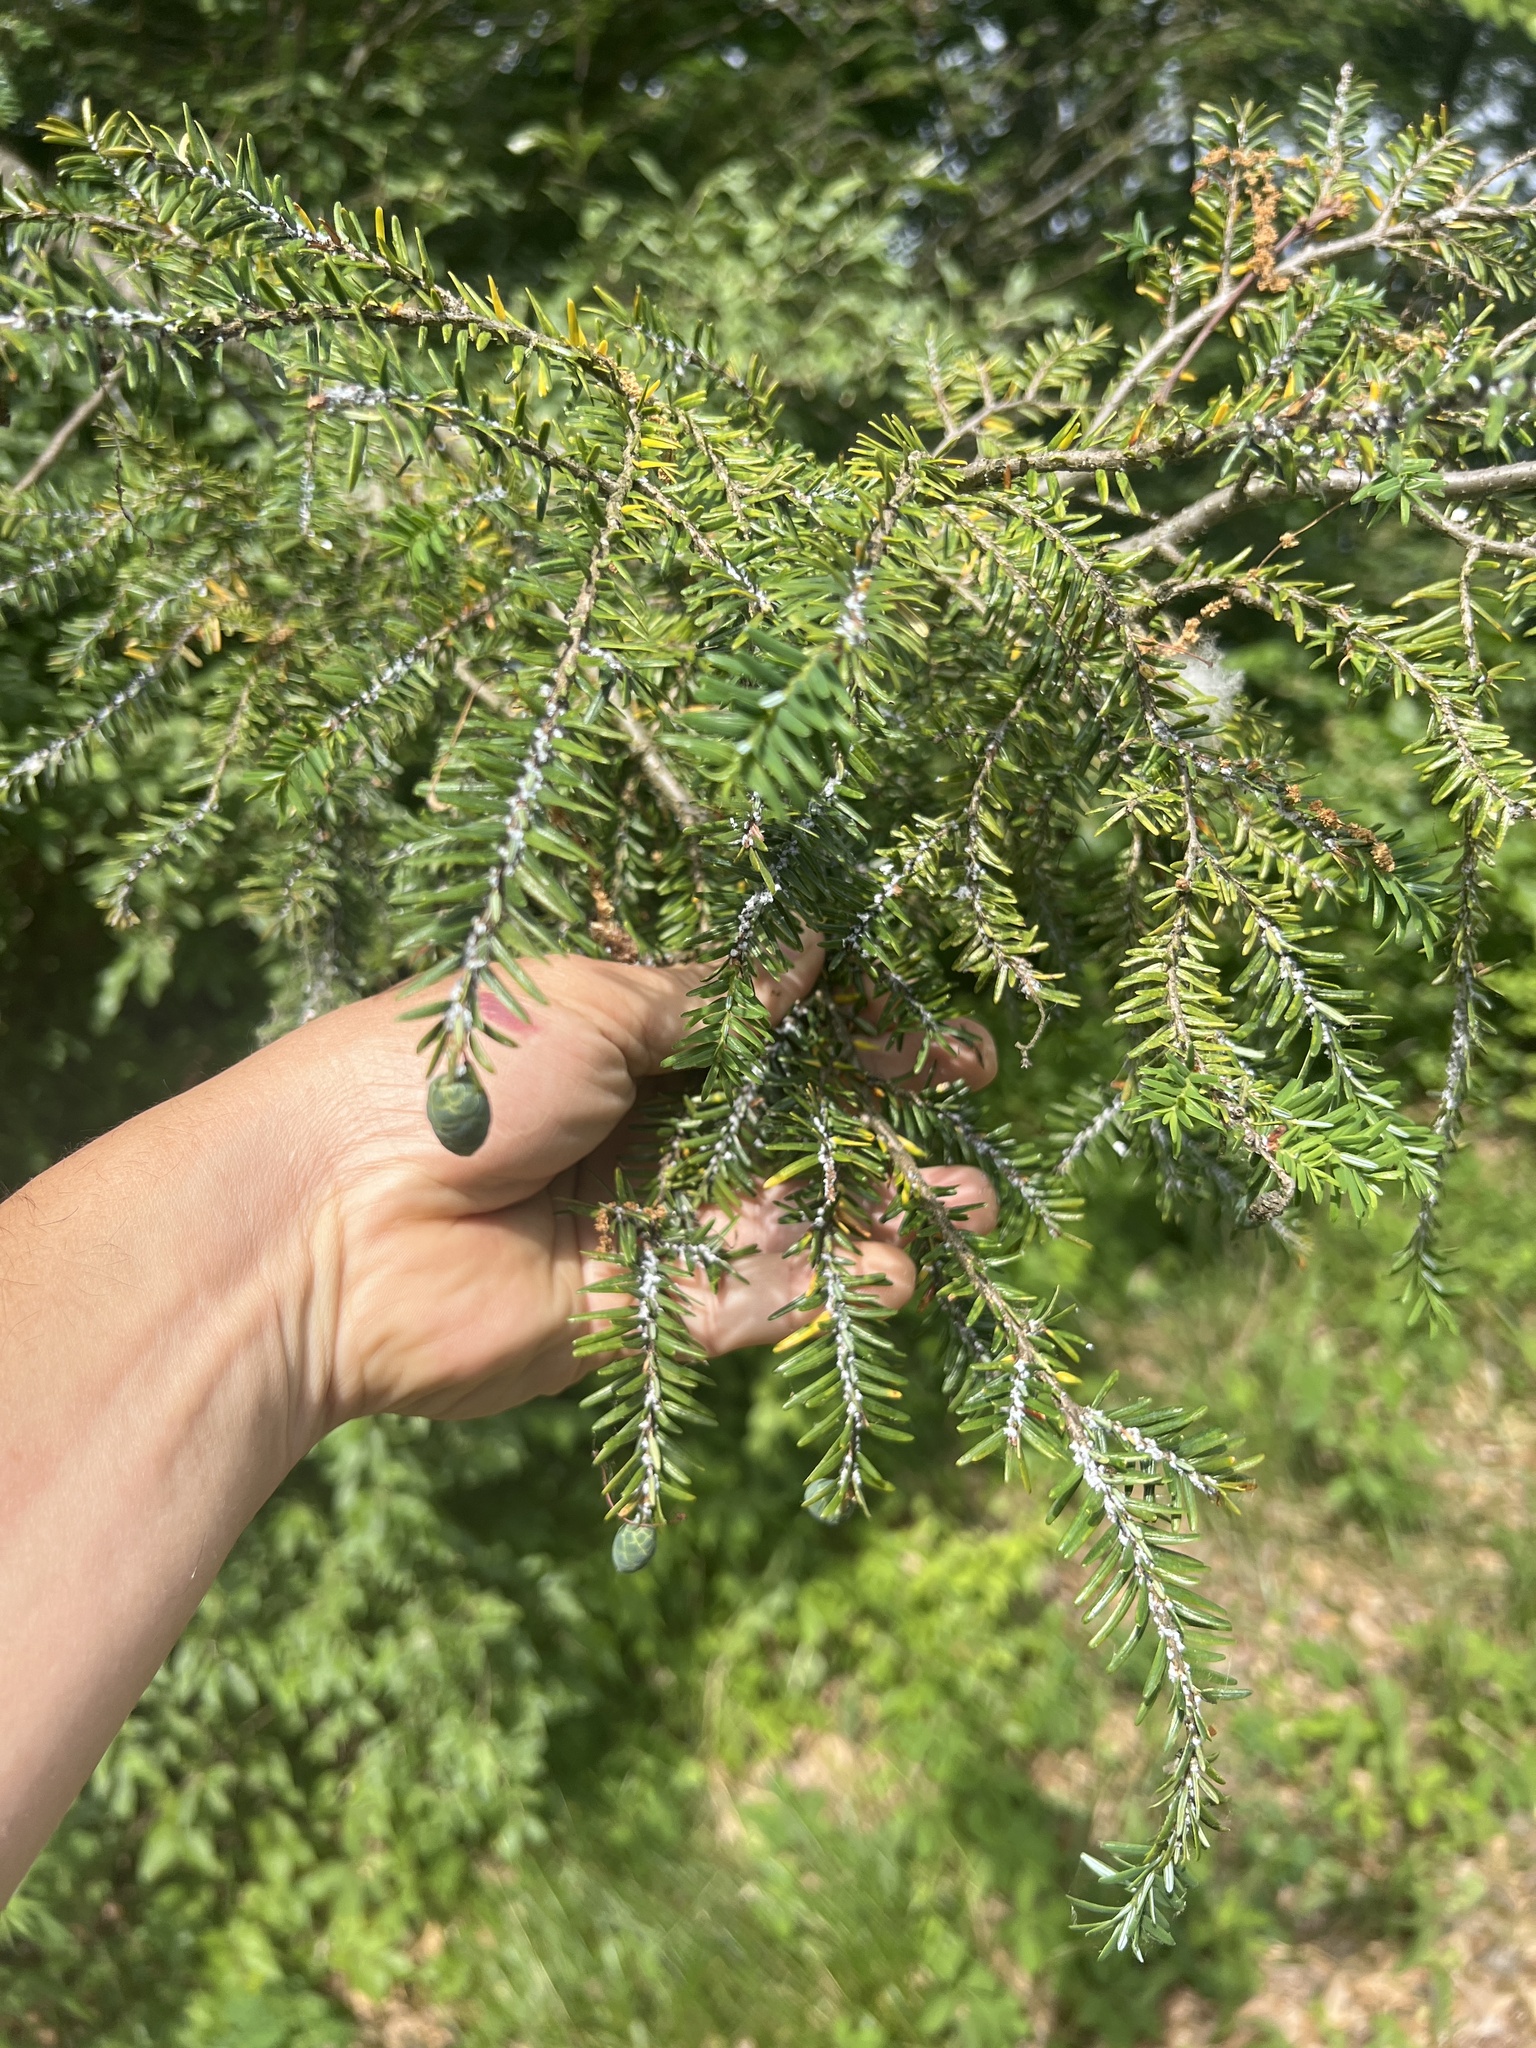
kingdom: Animalia
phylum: Arthropoda
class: Insecta
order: Hemiptera
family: Adelgidae
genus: Adelges
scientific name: Adelges tsugae
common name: Hemlock woolly adelgid
